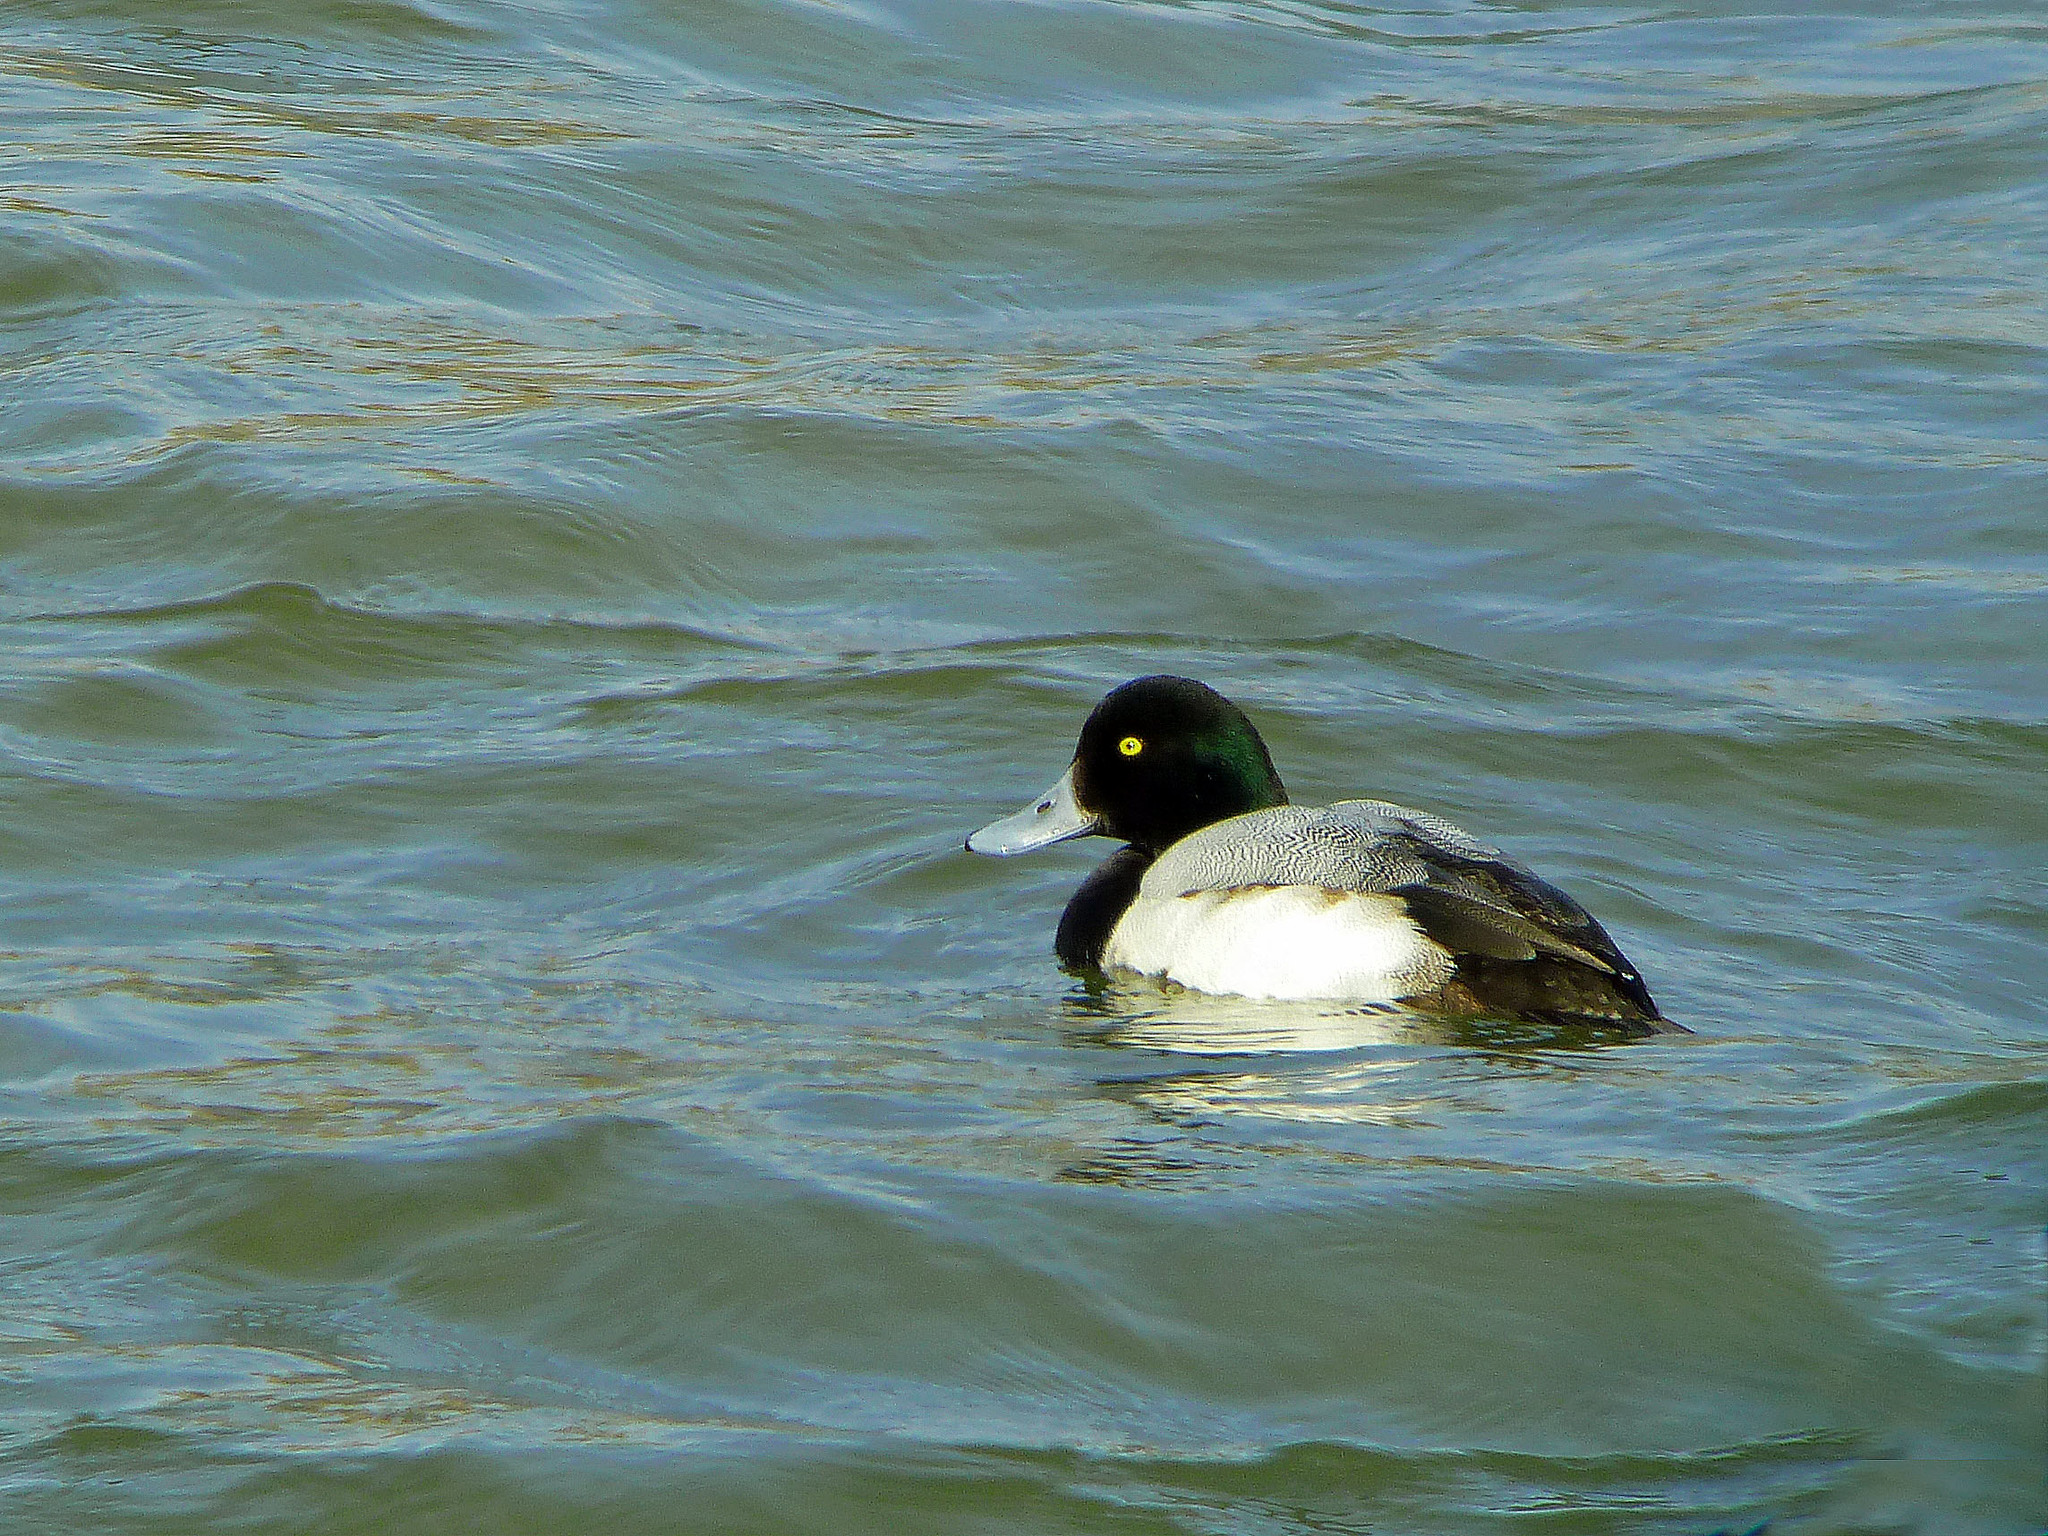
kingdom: Animalia
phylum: Chordata
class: Aves
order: Anseriformes
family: Anatidae
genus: Aythya
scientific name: Aythya marila
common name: Greater scaup
